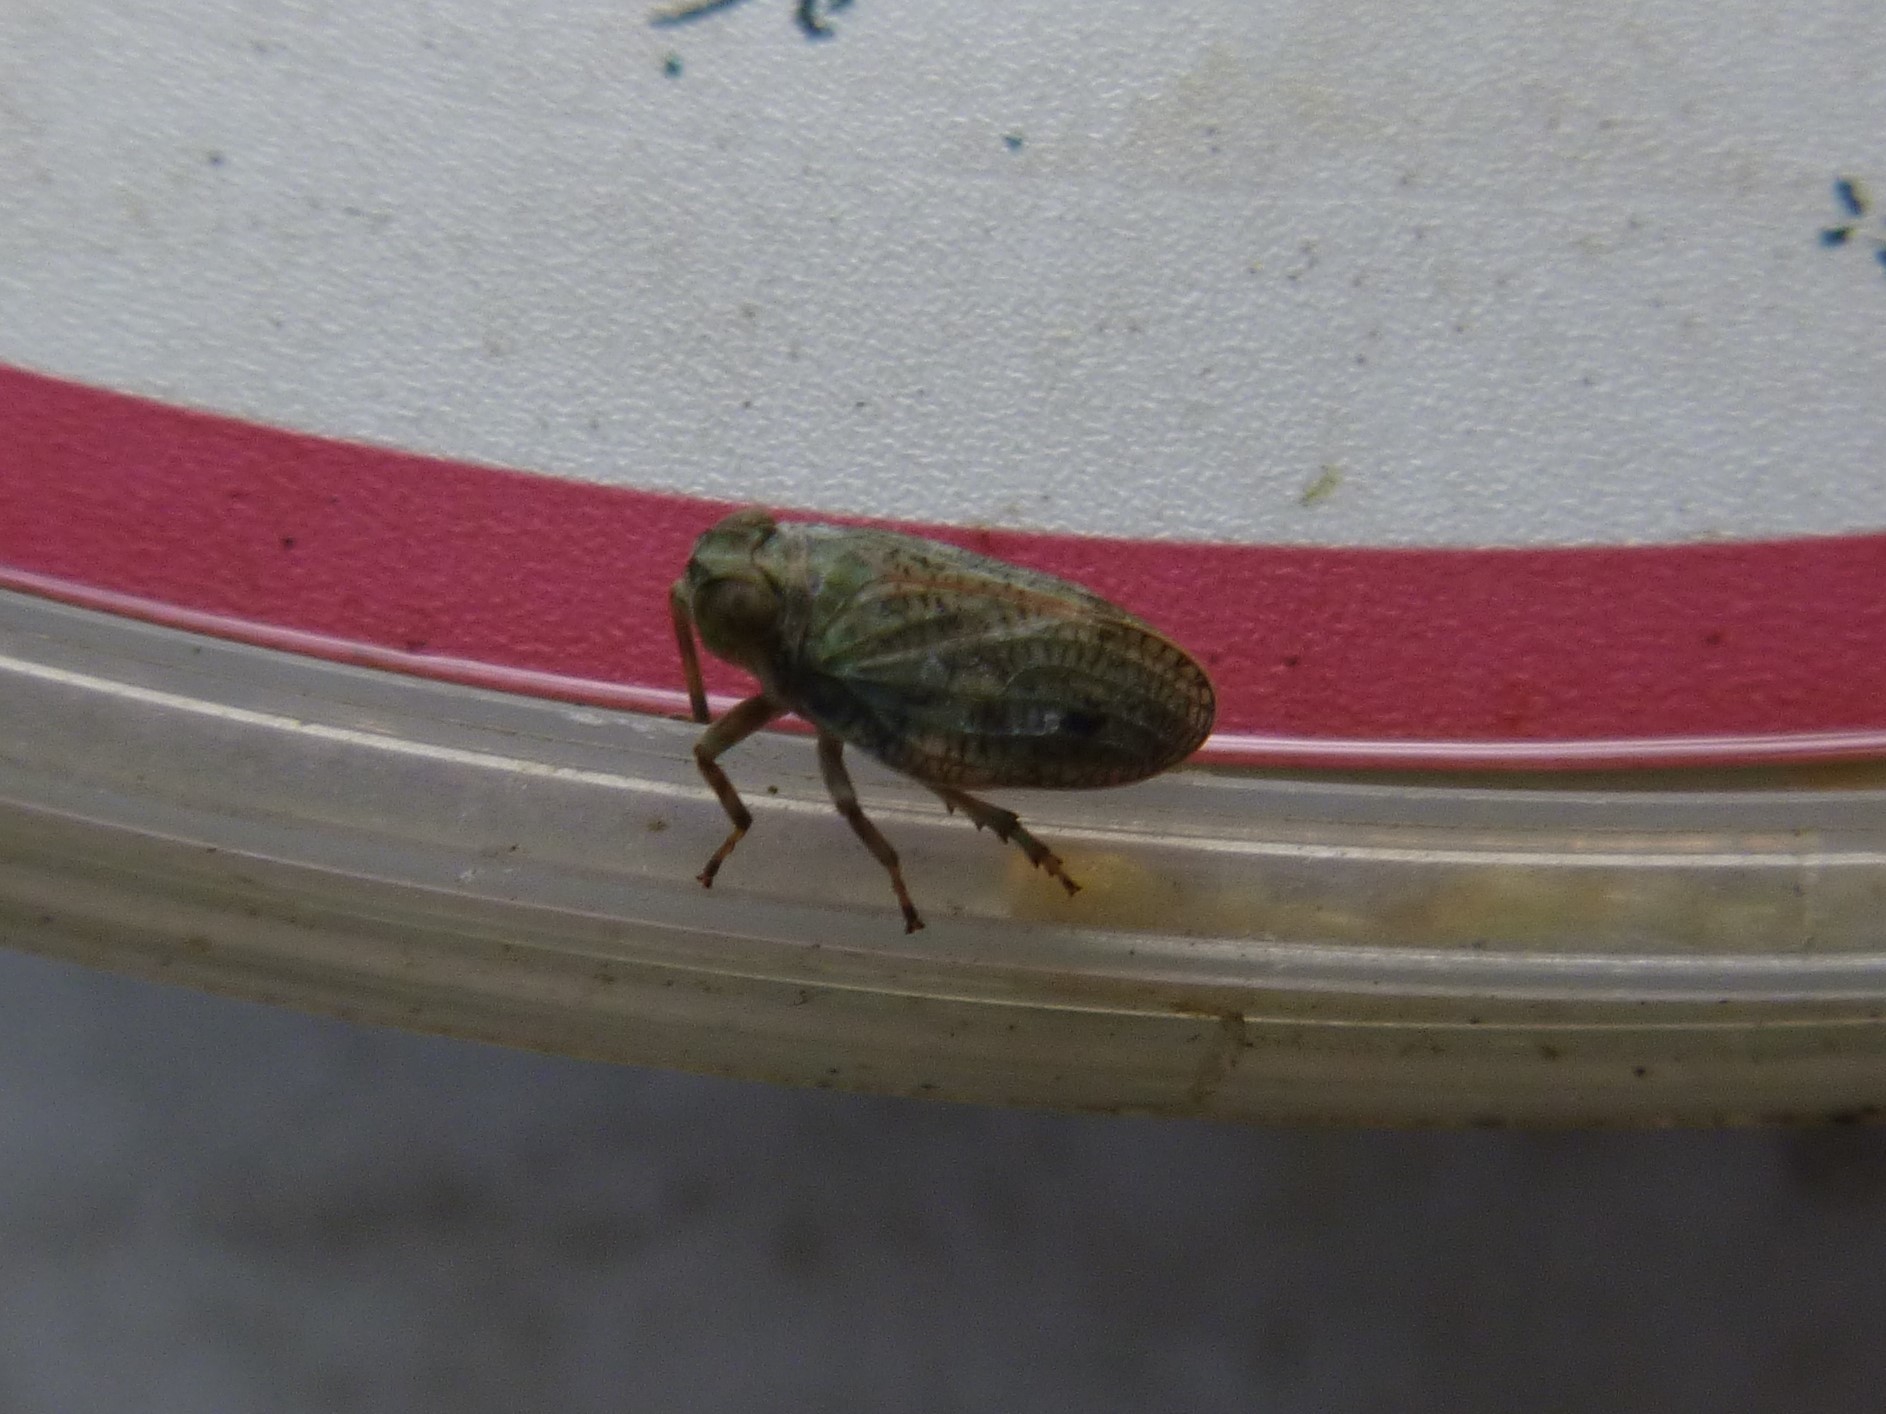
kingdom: Animalia
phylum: Arthropoda
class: Insecta
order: Hemiptera
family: Issidae
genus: Issus
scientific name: Issus coleoptratus
